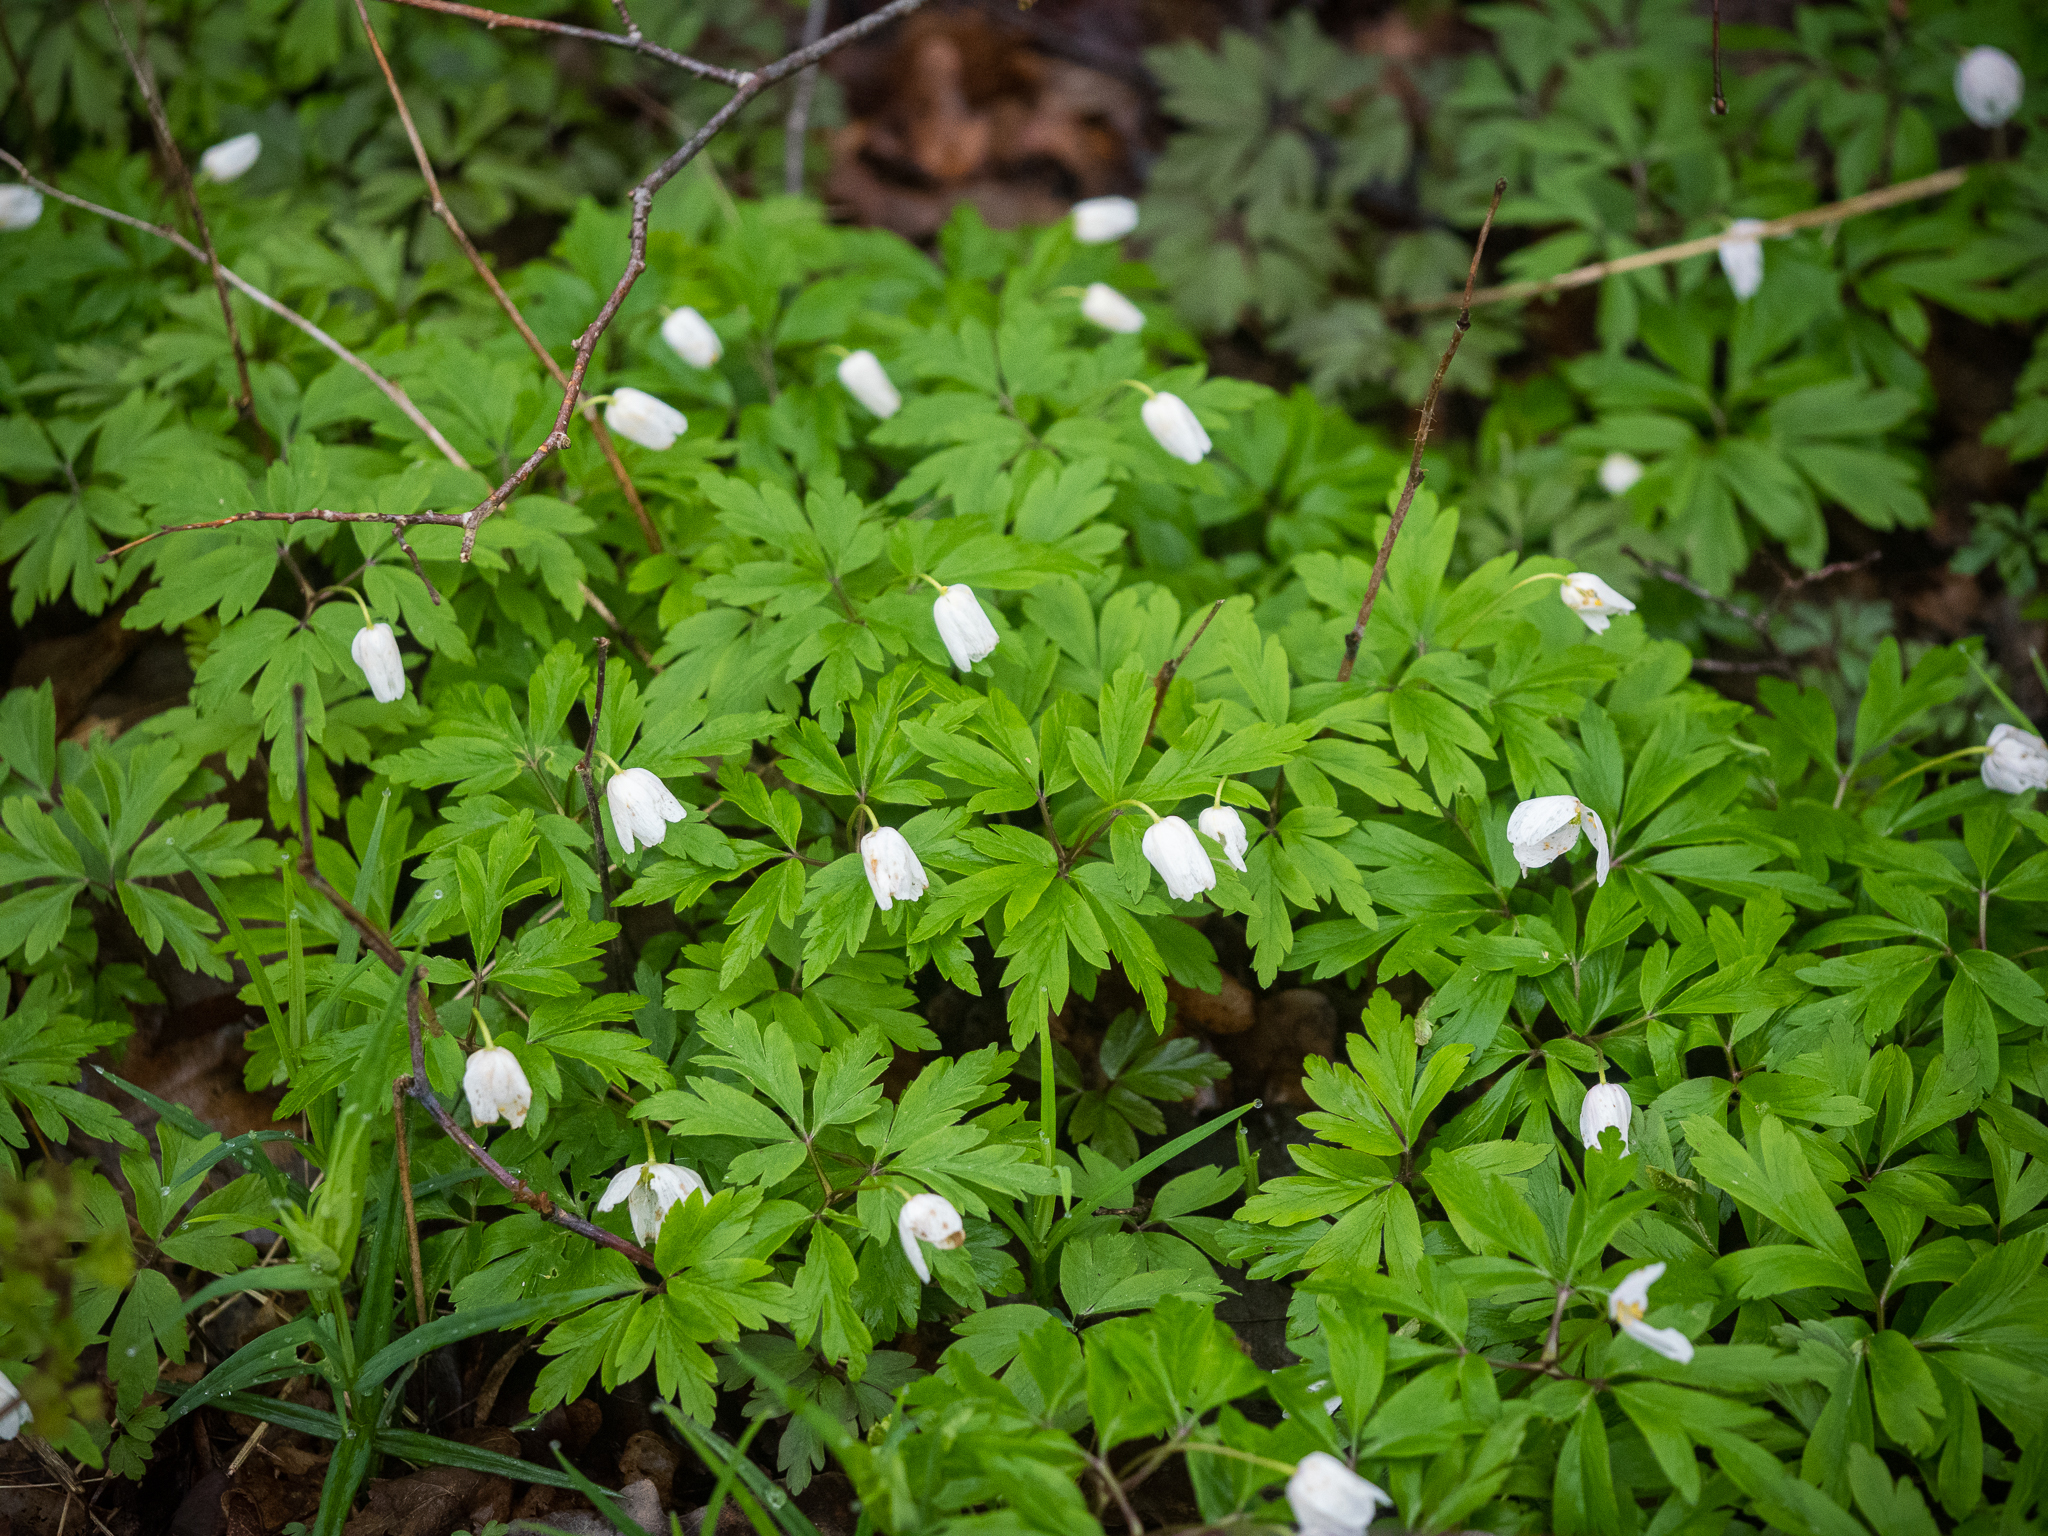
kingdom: Plantae
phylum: Tracheophyta
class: Magnoliopsida
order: Ranunculales
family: Ranunculaceae
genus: Anemone
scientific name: Anemone nemorosa
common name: Wood anemone
